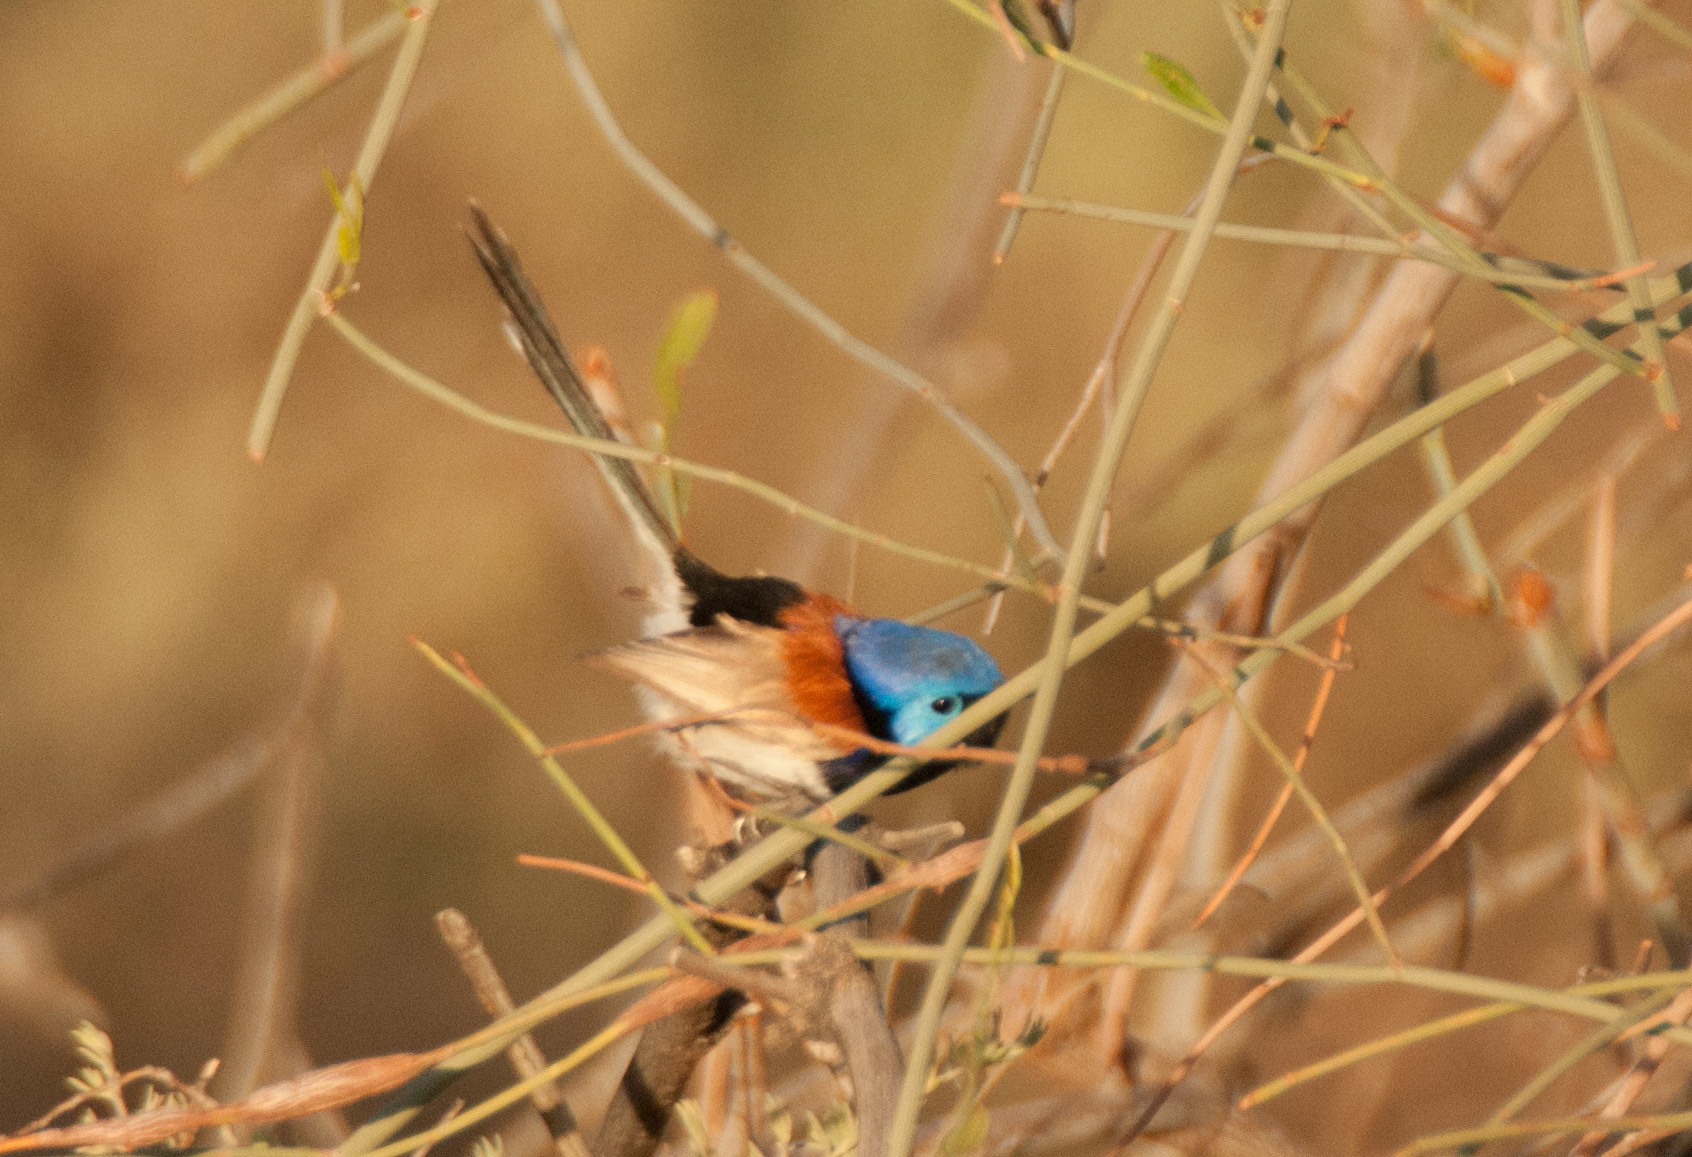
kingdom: Animalia
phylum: Chordata
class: Aves
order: Passeriformes
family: Maluridae
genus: Malurus
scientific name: Malurus assimilis
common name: Purple-backed fairywren
